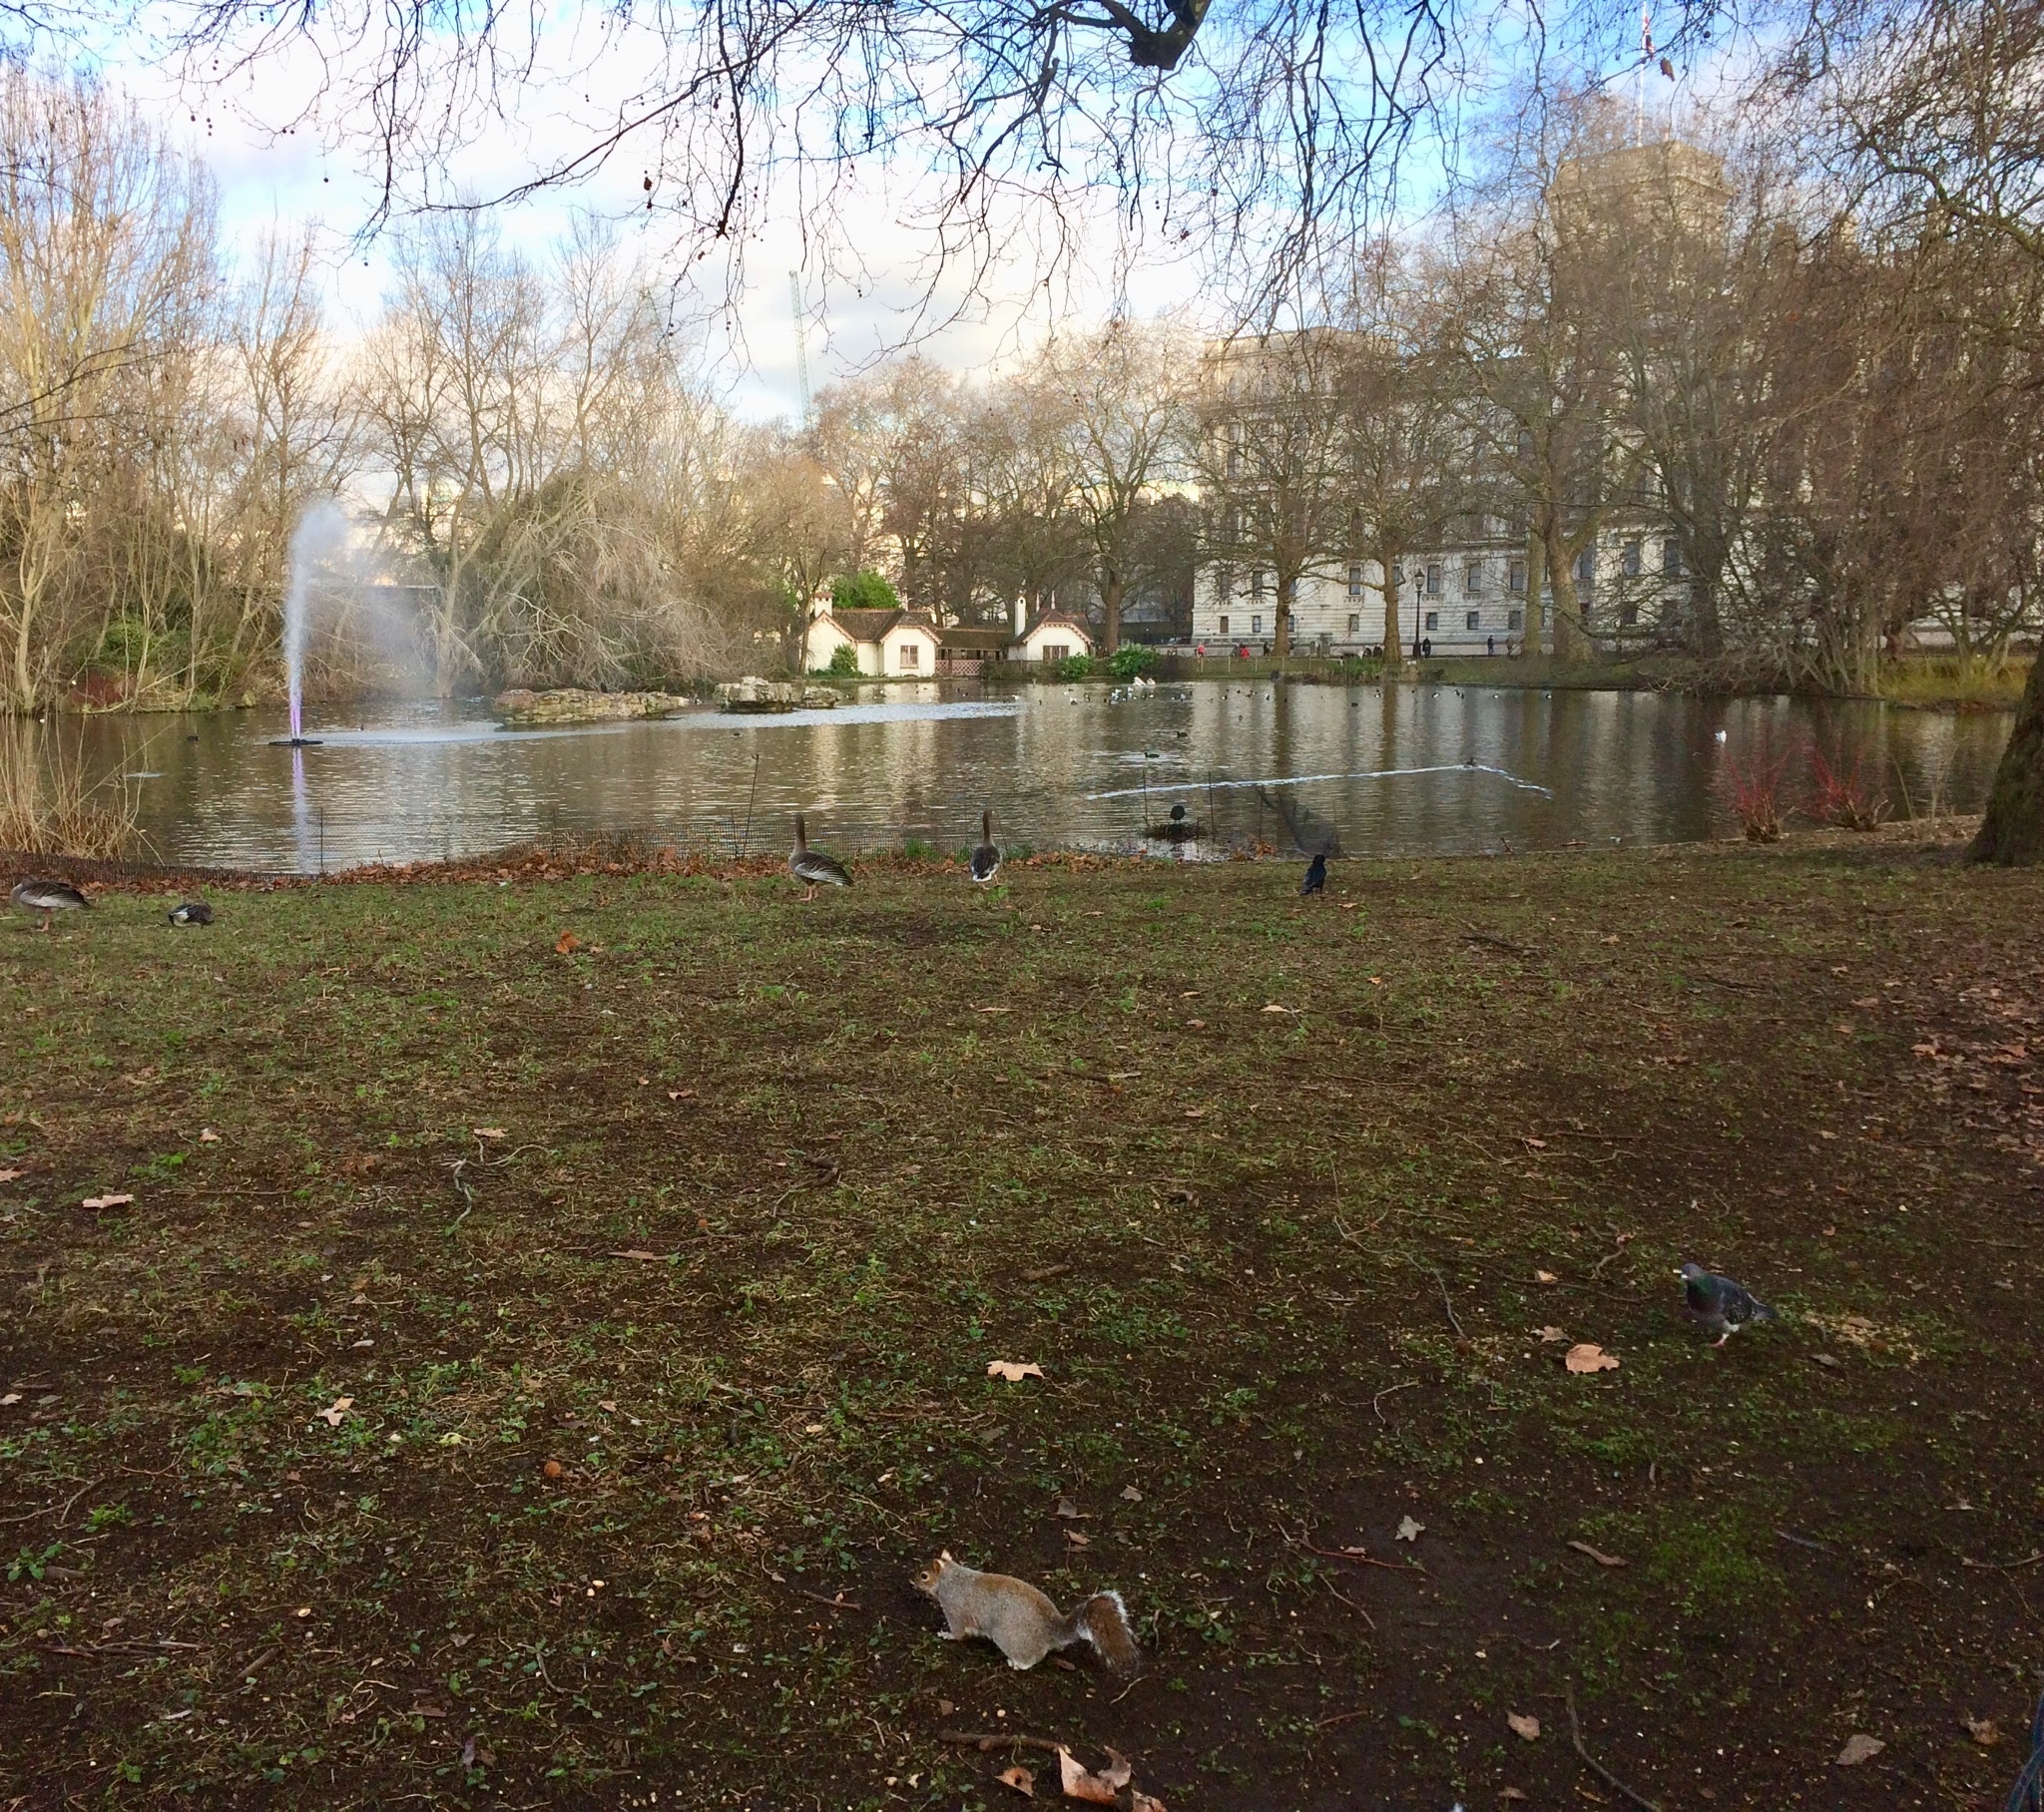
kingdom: Animalia
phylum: Chordata
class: Mammalia
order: Rodentia
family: Sciuridae
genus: Sciurus
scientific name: Sciurus carolinensis
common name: Eastern gray squirrel
